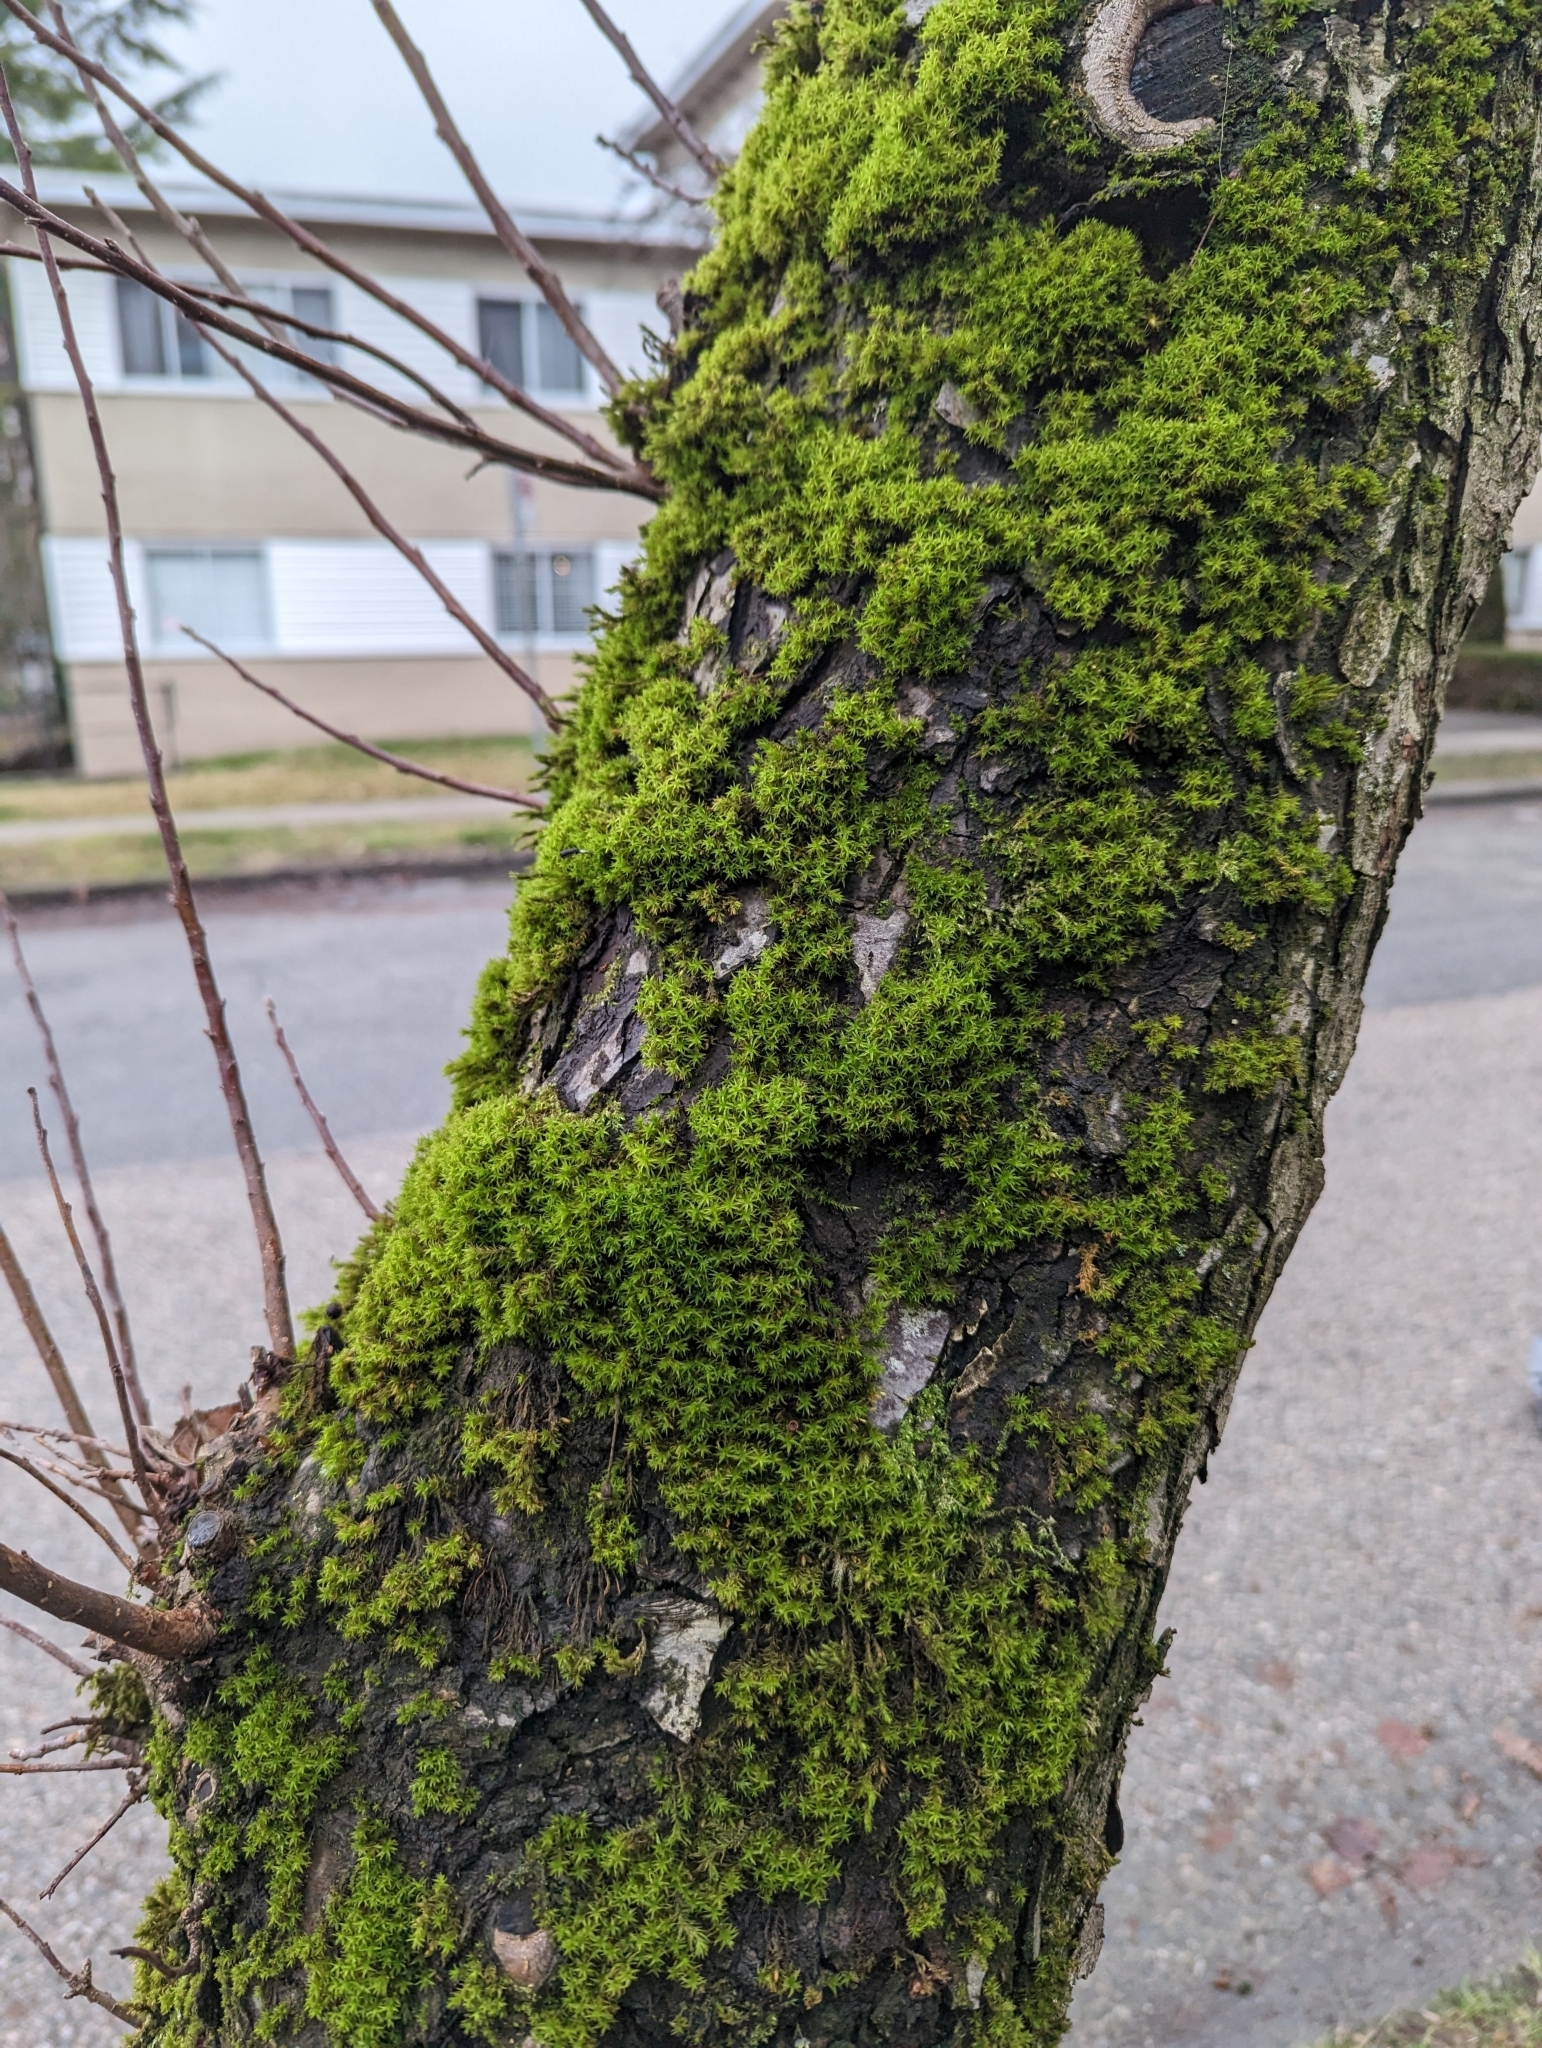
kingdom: Plantae
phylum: Bryophyta
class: Bryopsida
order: Orthotrichales
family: Orthotrichaceae
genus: Pulvigera
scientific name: Pulvigera papillosa
